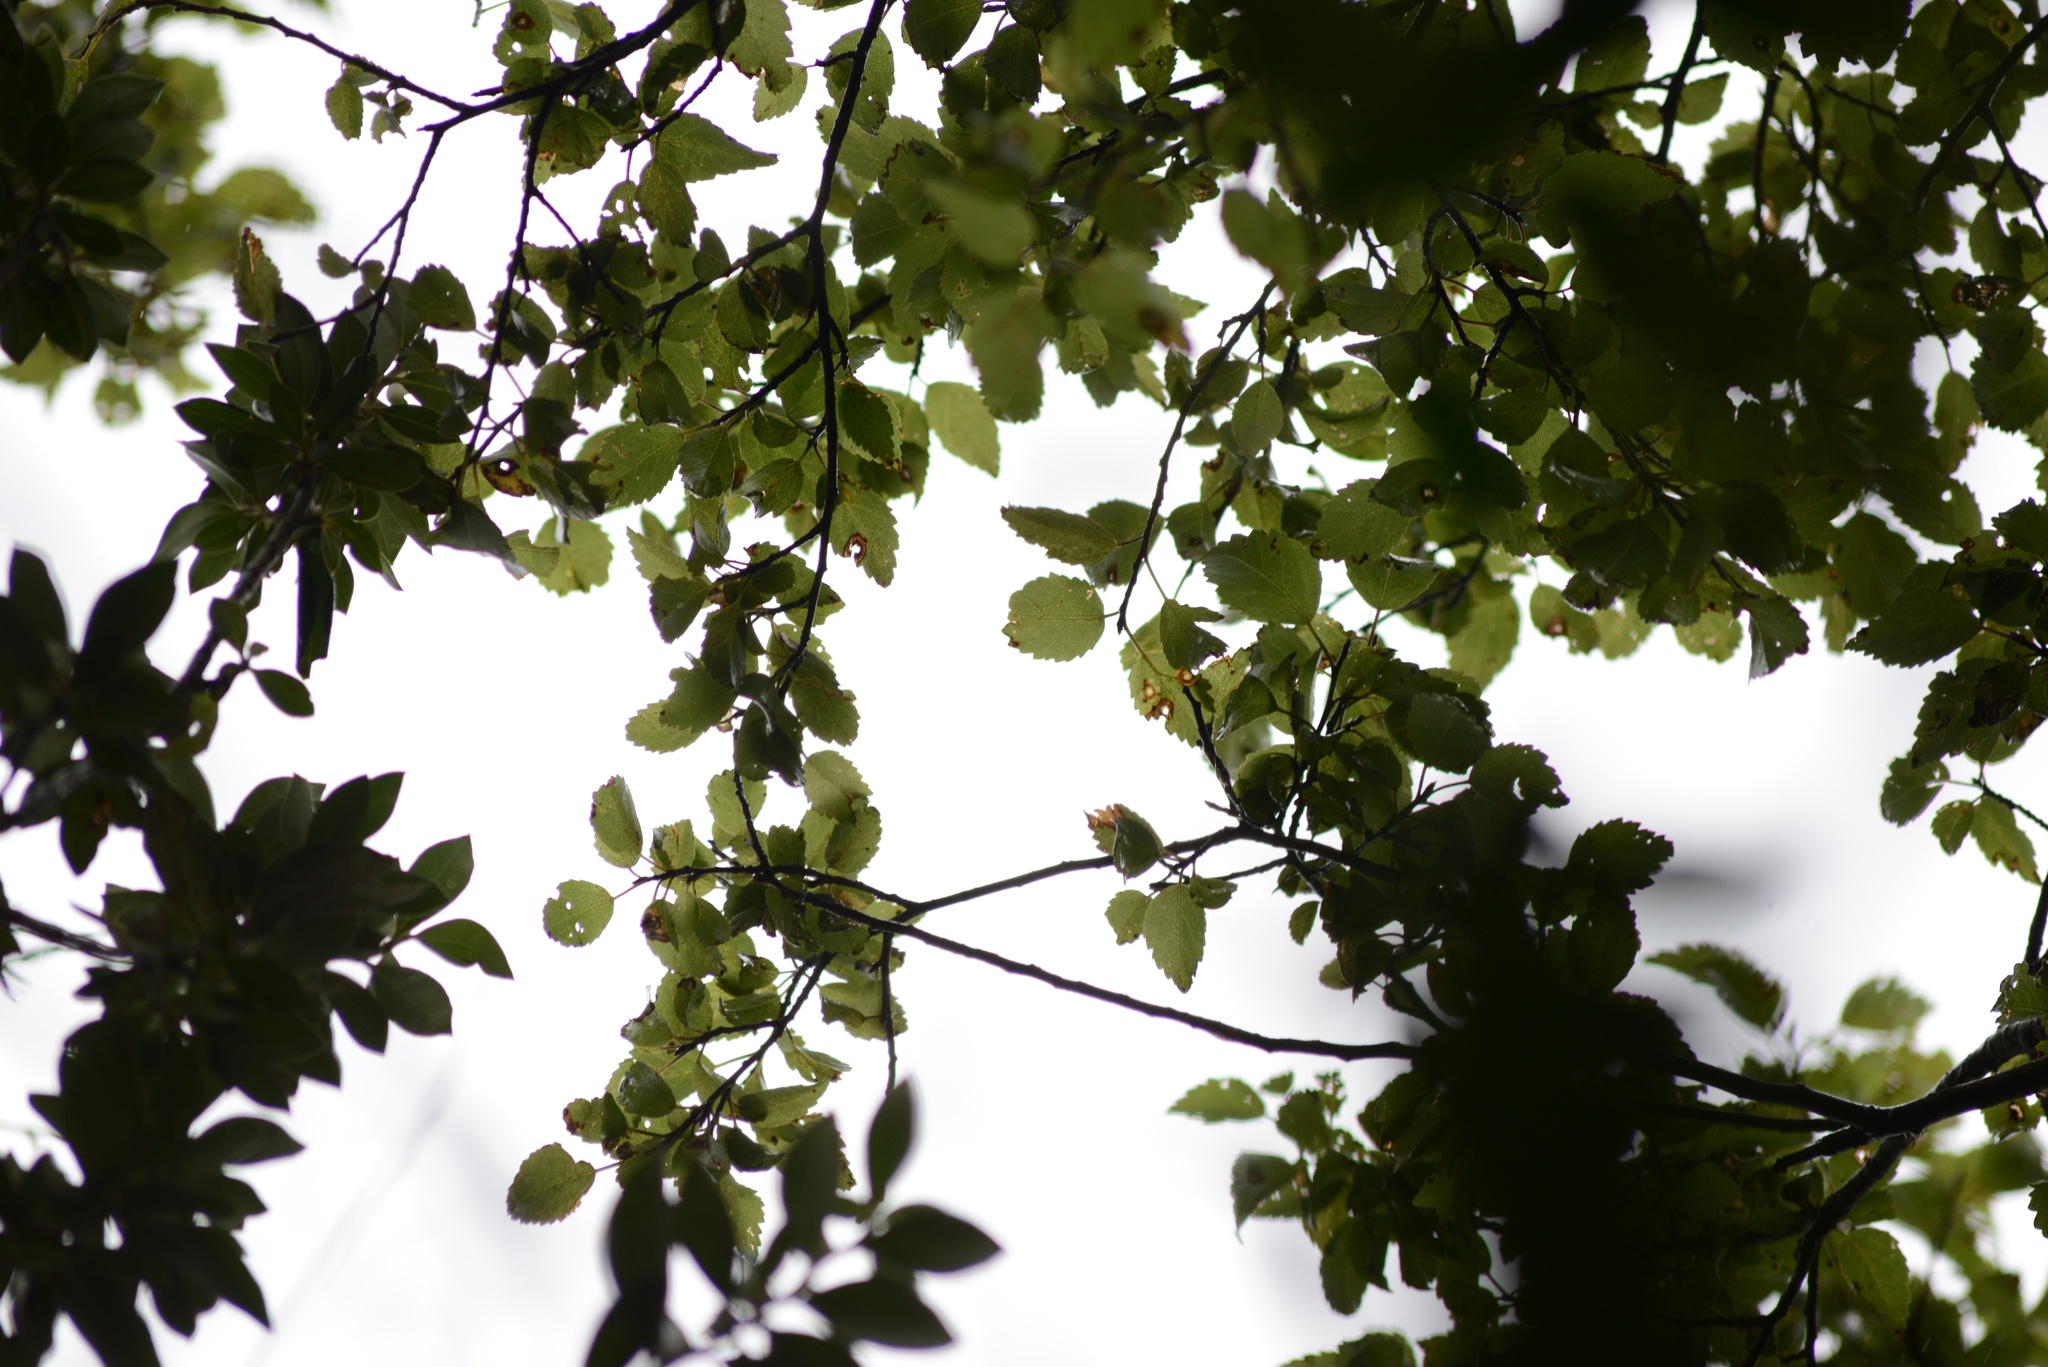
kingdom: Plantae
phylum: Tracheophyta
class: Magnoliopsida
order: Malvales
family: Malvaceae
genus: Plagianthus
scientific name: Plagianthus regius
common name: Manatu
